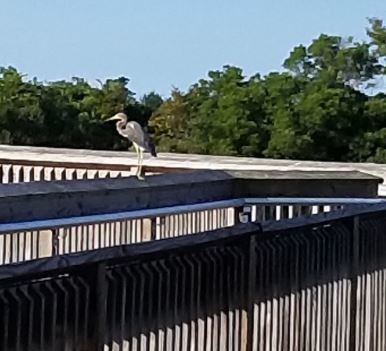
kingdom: Animalia
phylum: Chordata
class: Aves
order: Pelecaniformes
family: Ardeidae
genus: Egretta
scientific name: Egretta tricolor
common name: Tricolored heron
